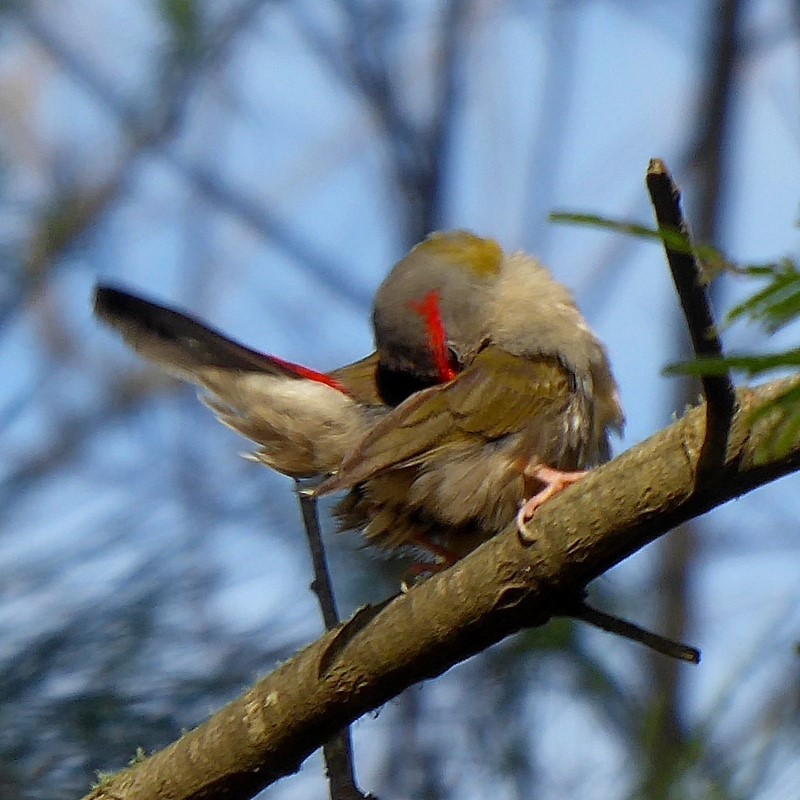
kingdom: Animalia
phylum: Chordata
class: Aves
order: Passeriformes
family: Estrildidae
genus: Neochmia
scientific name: Neochmia temporalis
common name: Red-browed finch
